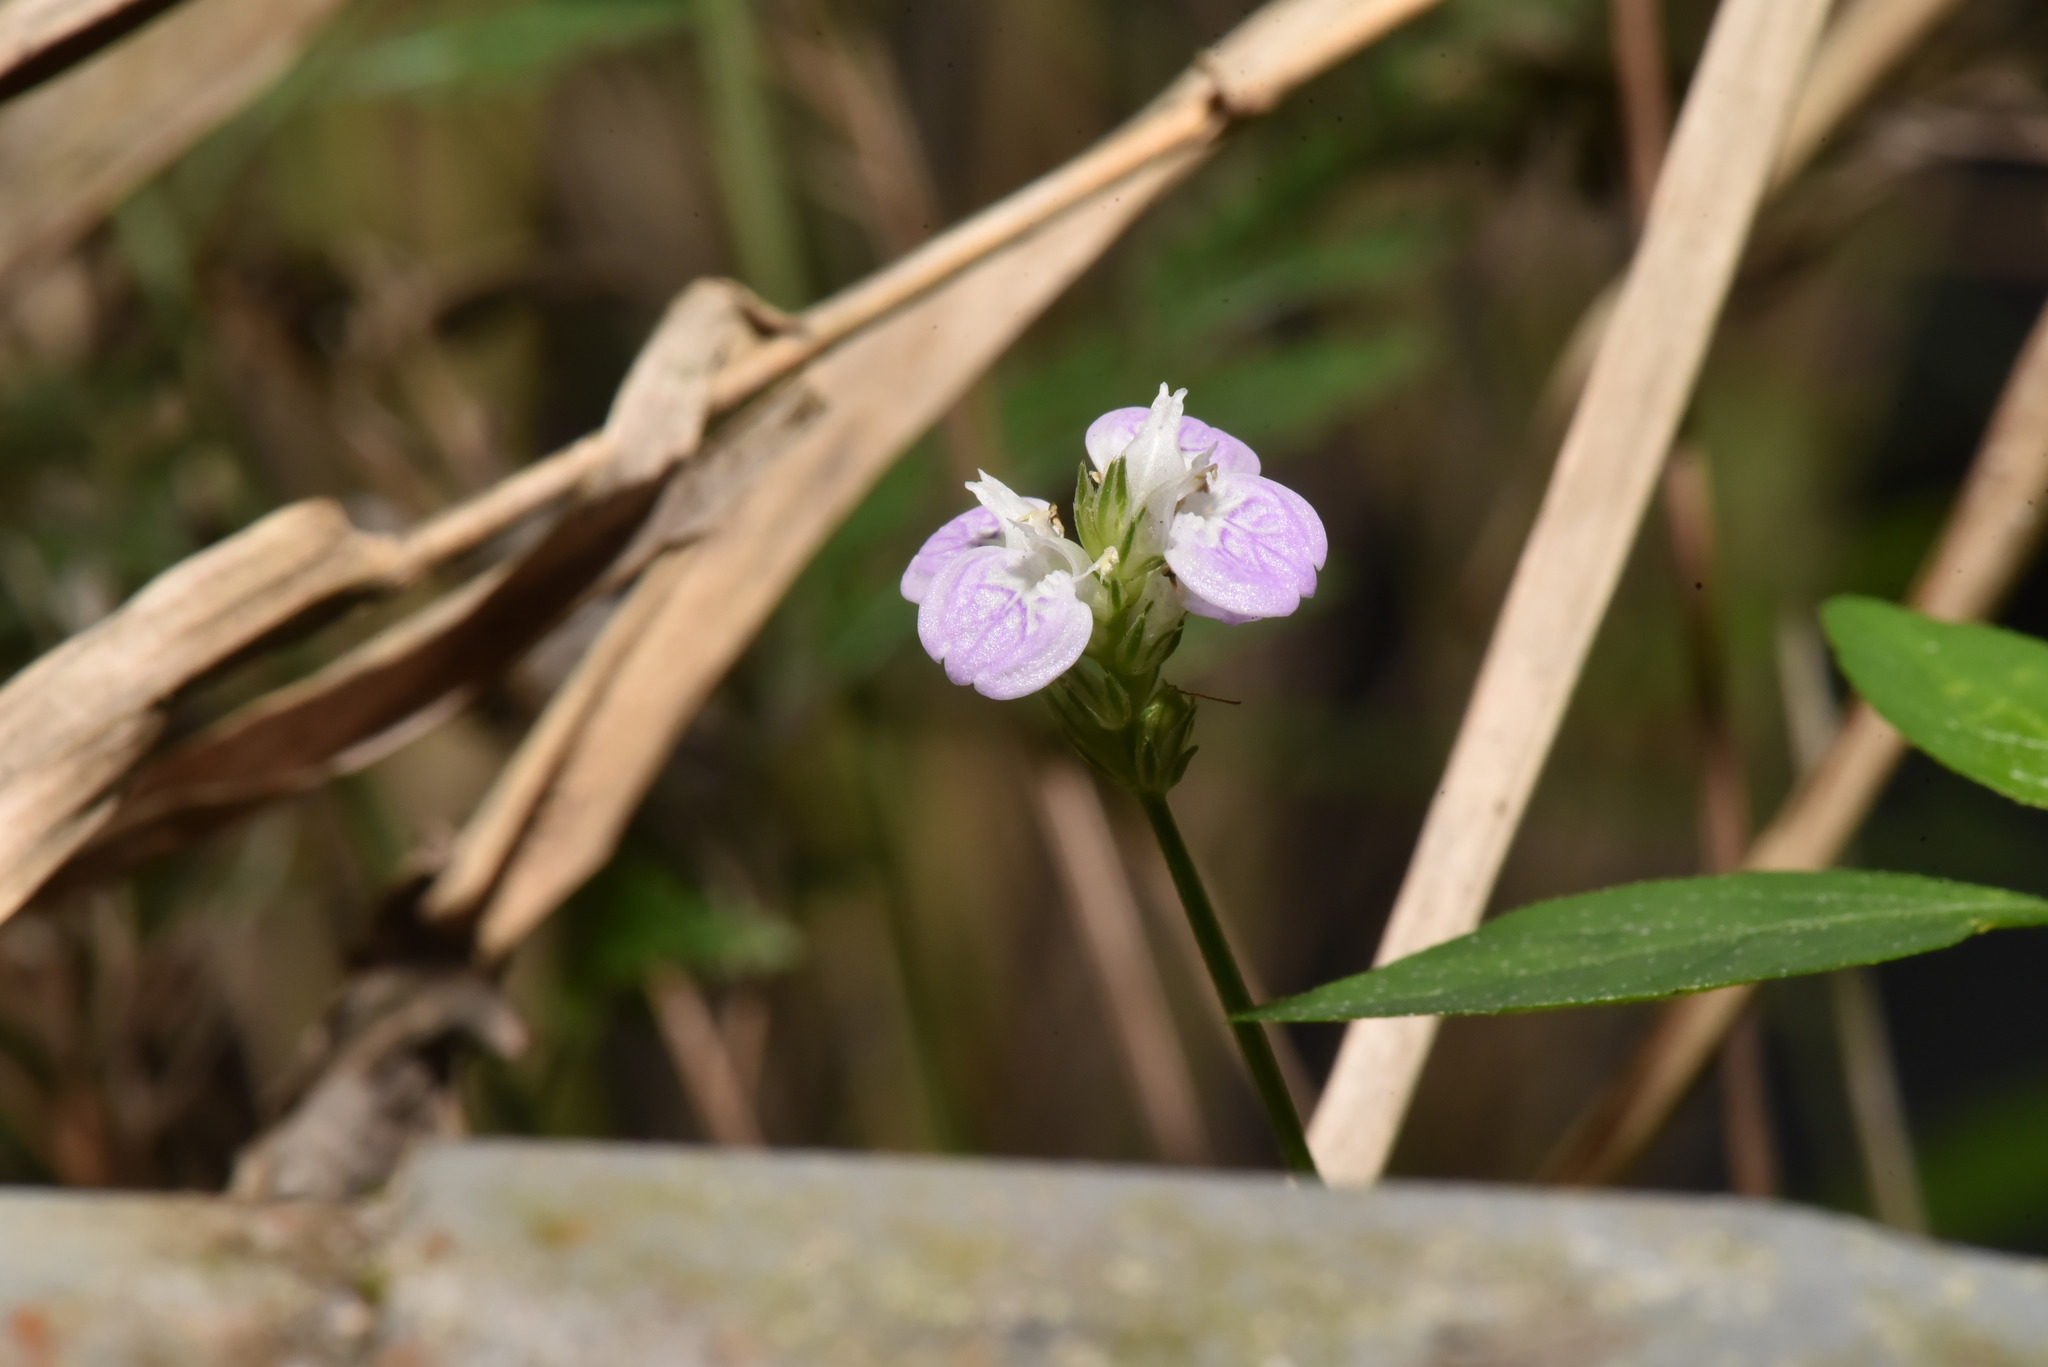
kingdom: Plantae
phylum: Tracheophyta
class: Magnoliopsida
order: Lamiales
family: Acanthaceae
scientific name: Acanthaceae
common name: Acanthaceae
